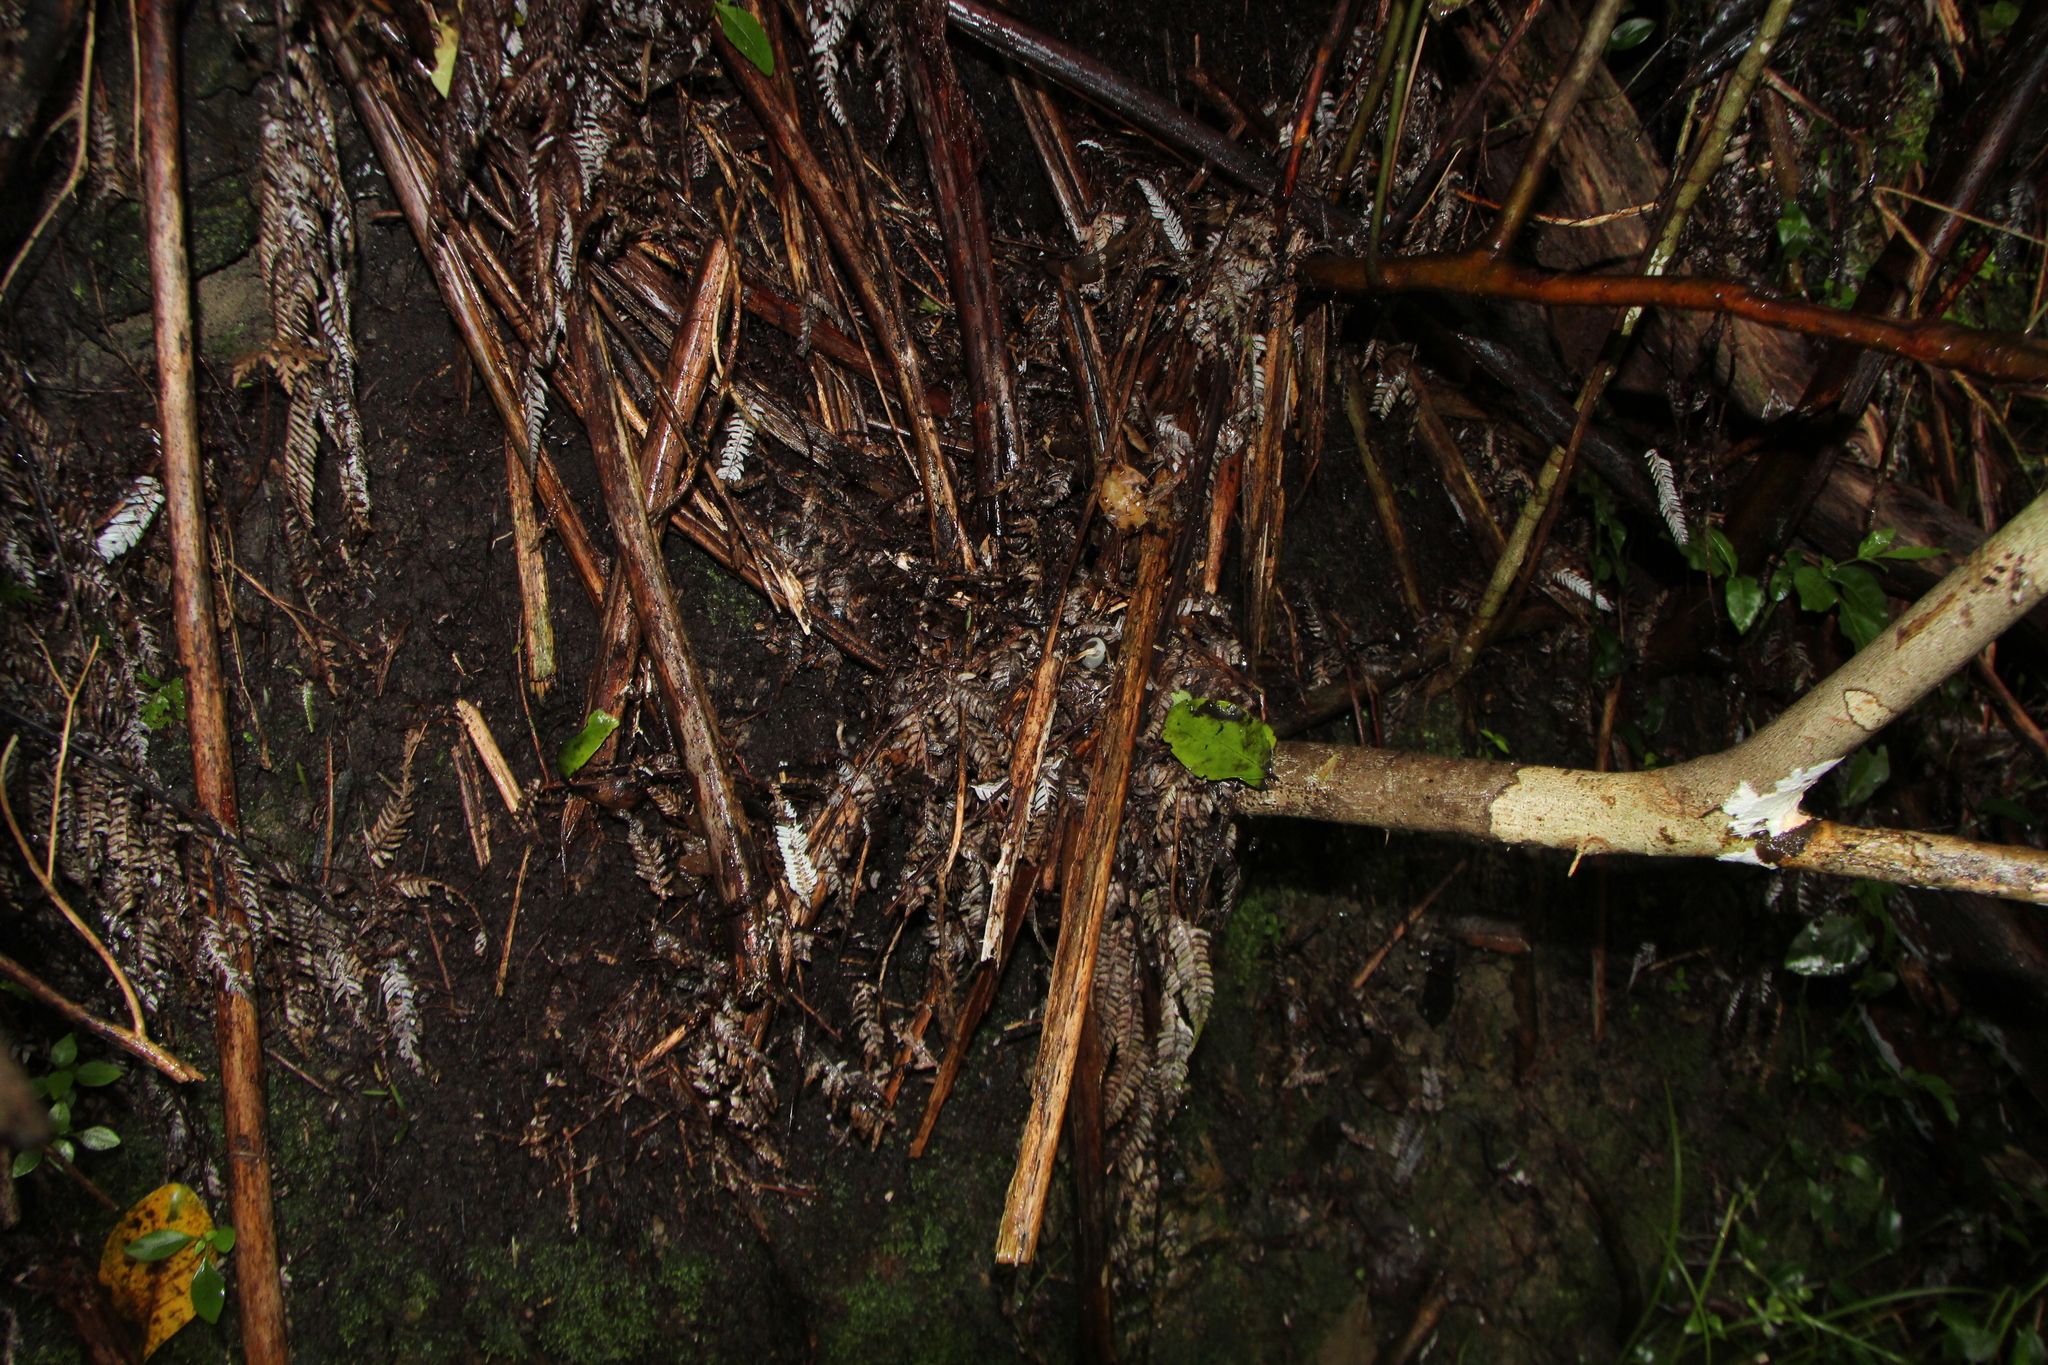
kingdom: Fungi
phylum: Basidiomycota
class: Agaricomycetes
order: Agaricales
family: Hymenogastraceae
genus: Psilocybe
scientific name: Psilocybe weraroa
